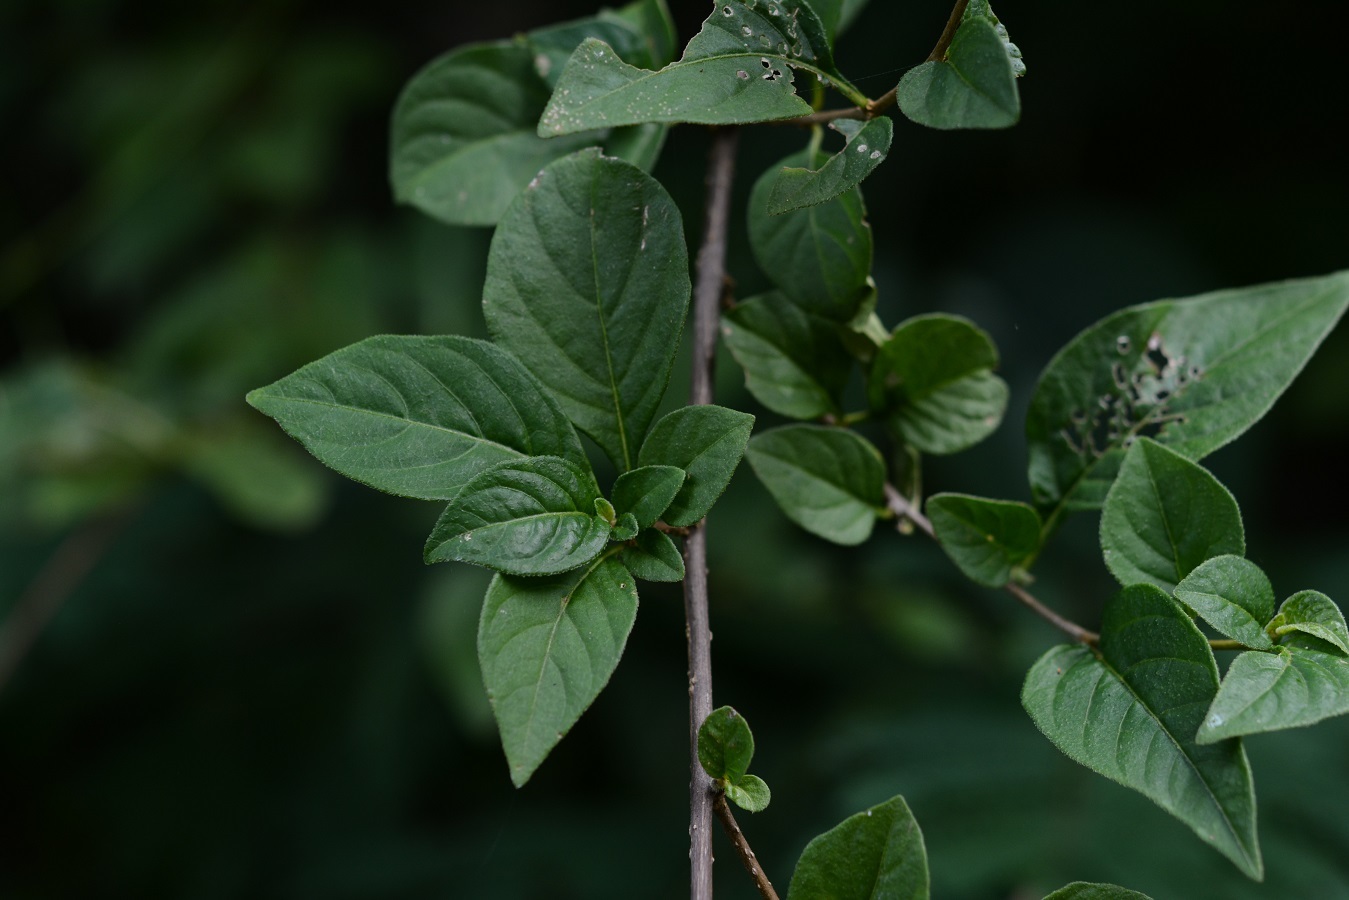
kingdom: Plantae
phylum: Tracheophyta
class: Magnoliopsida
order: Solanales
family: Solanaceae
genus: Lycianthes
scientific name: Lycianthes tricolor
